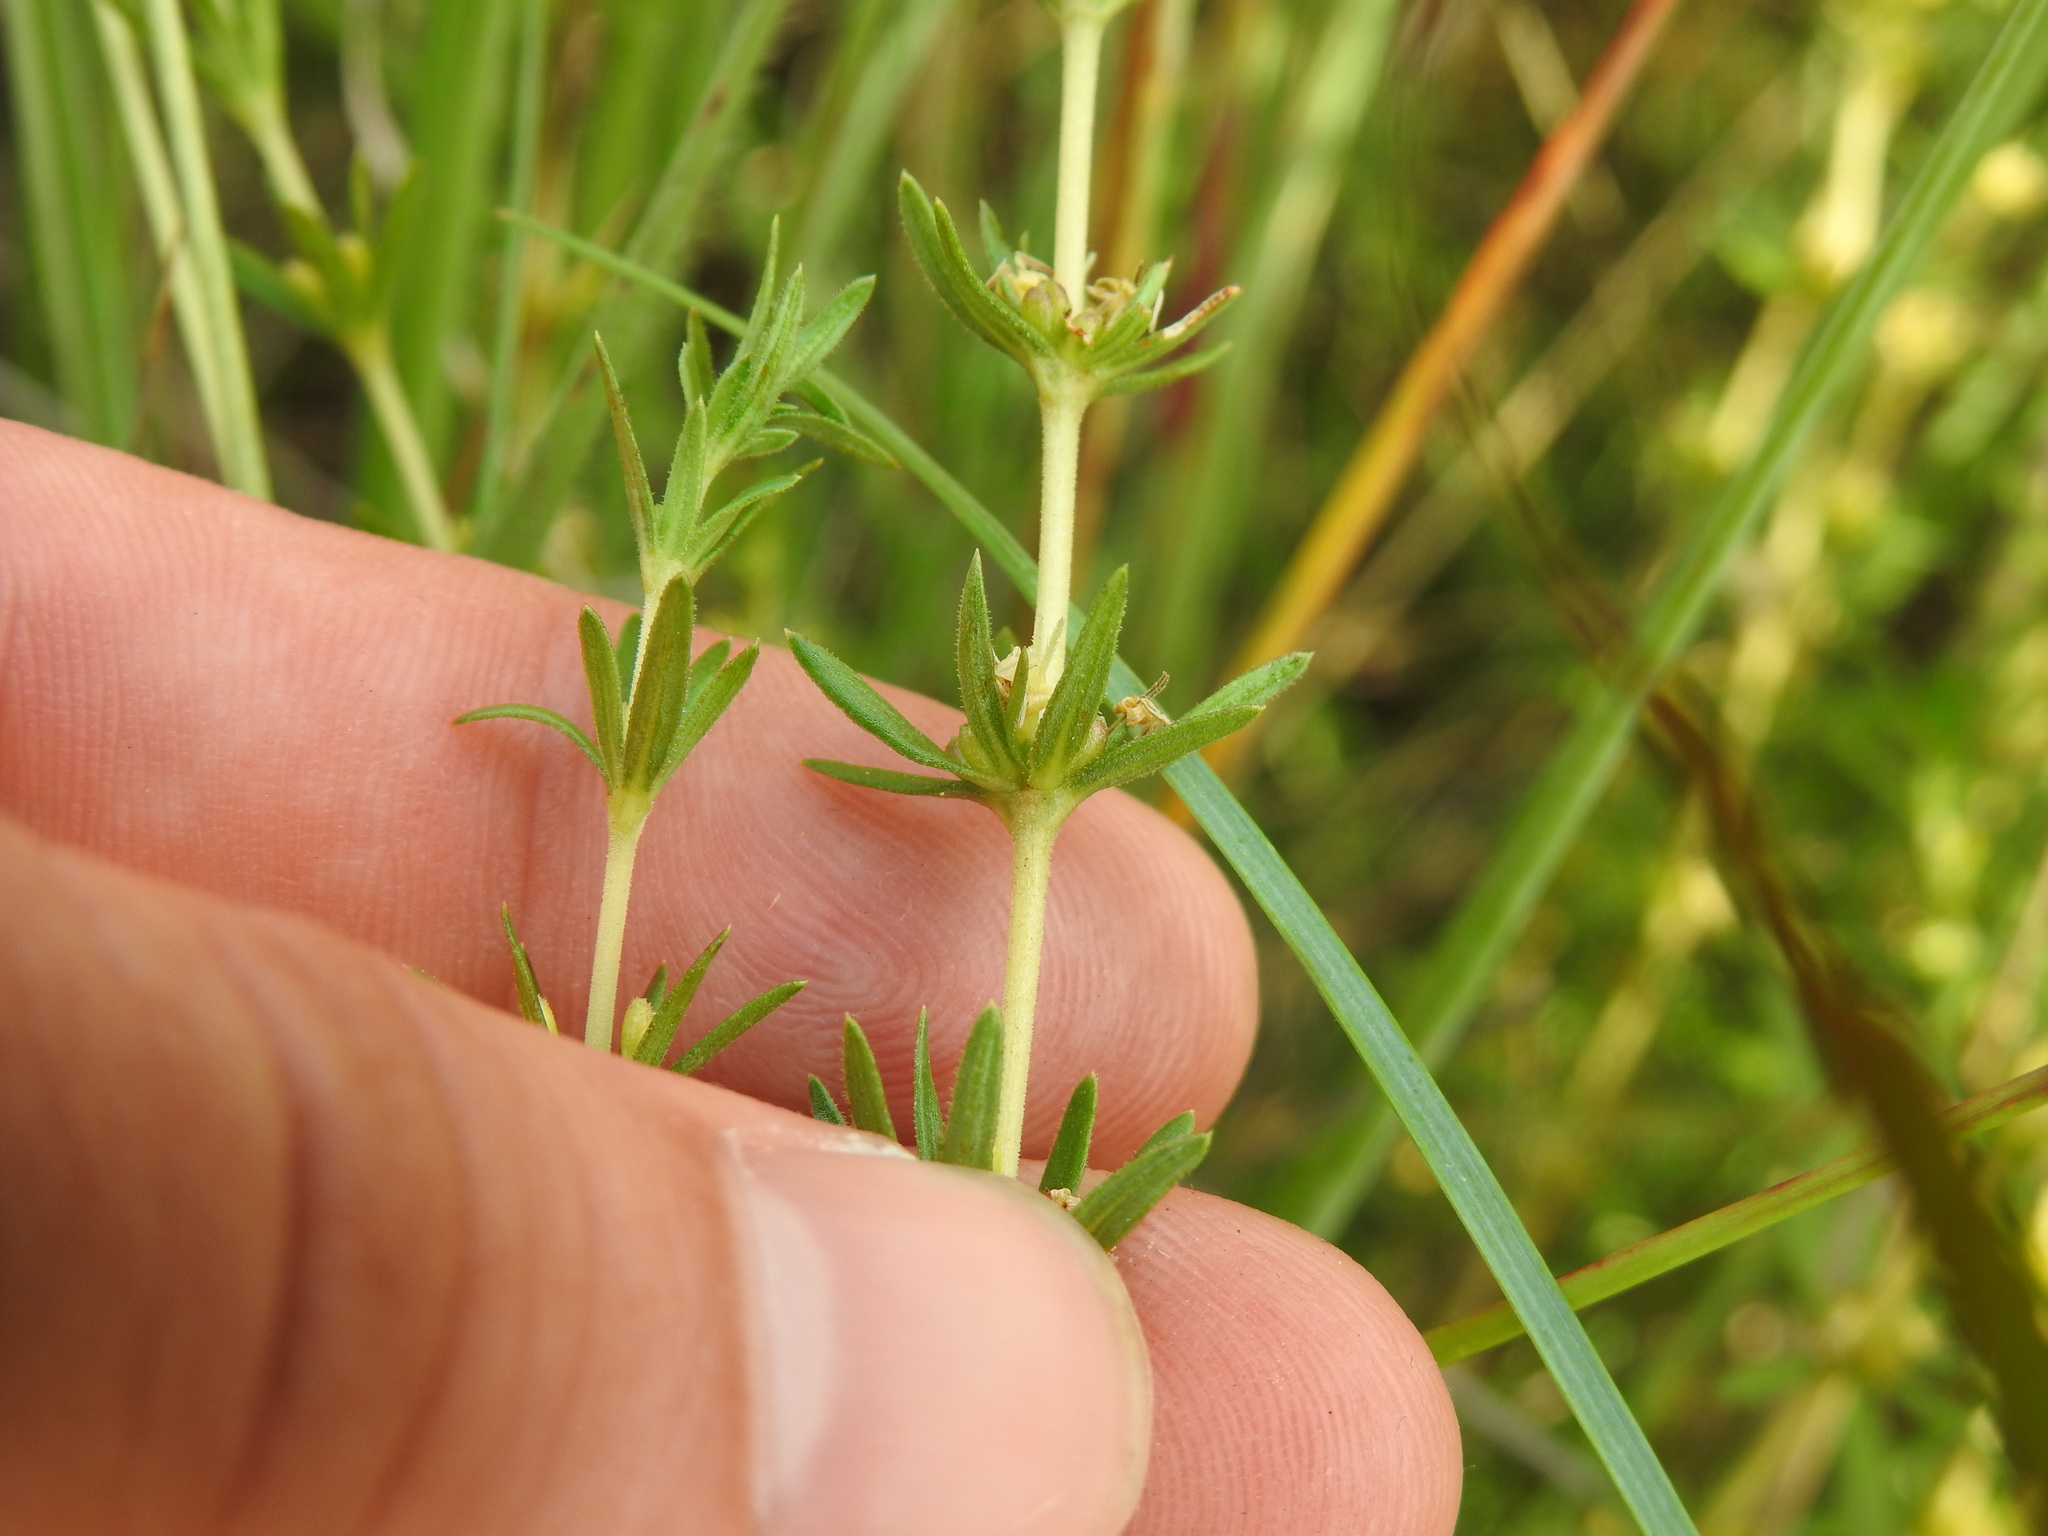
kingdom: Plantae
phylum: Tracheophyta
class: Magnoliopsida
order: Gentianales
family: Rubiaceae
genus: Anthospermum
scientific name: Anthospermum rigidum
